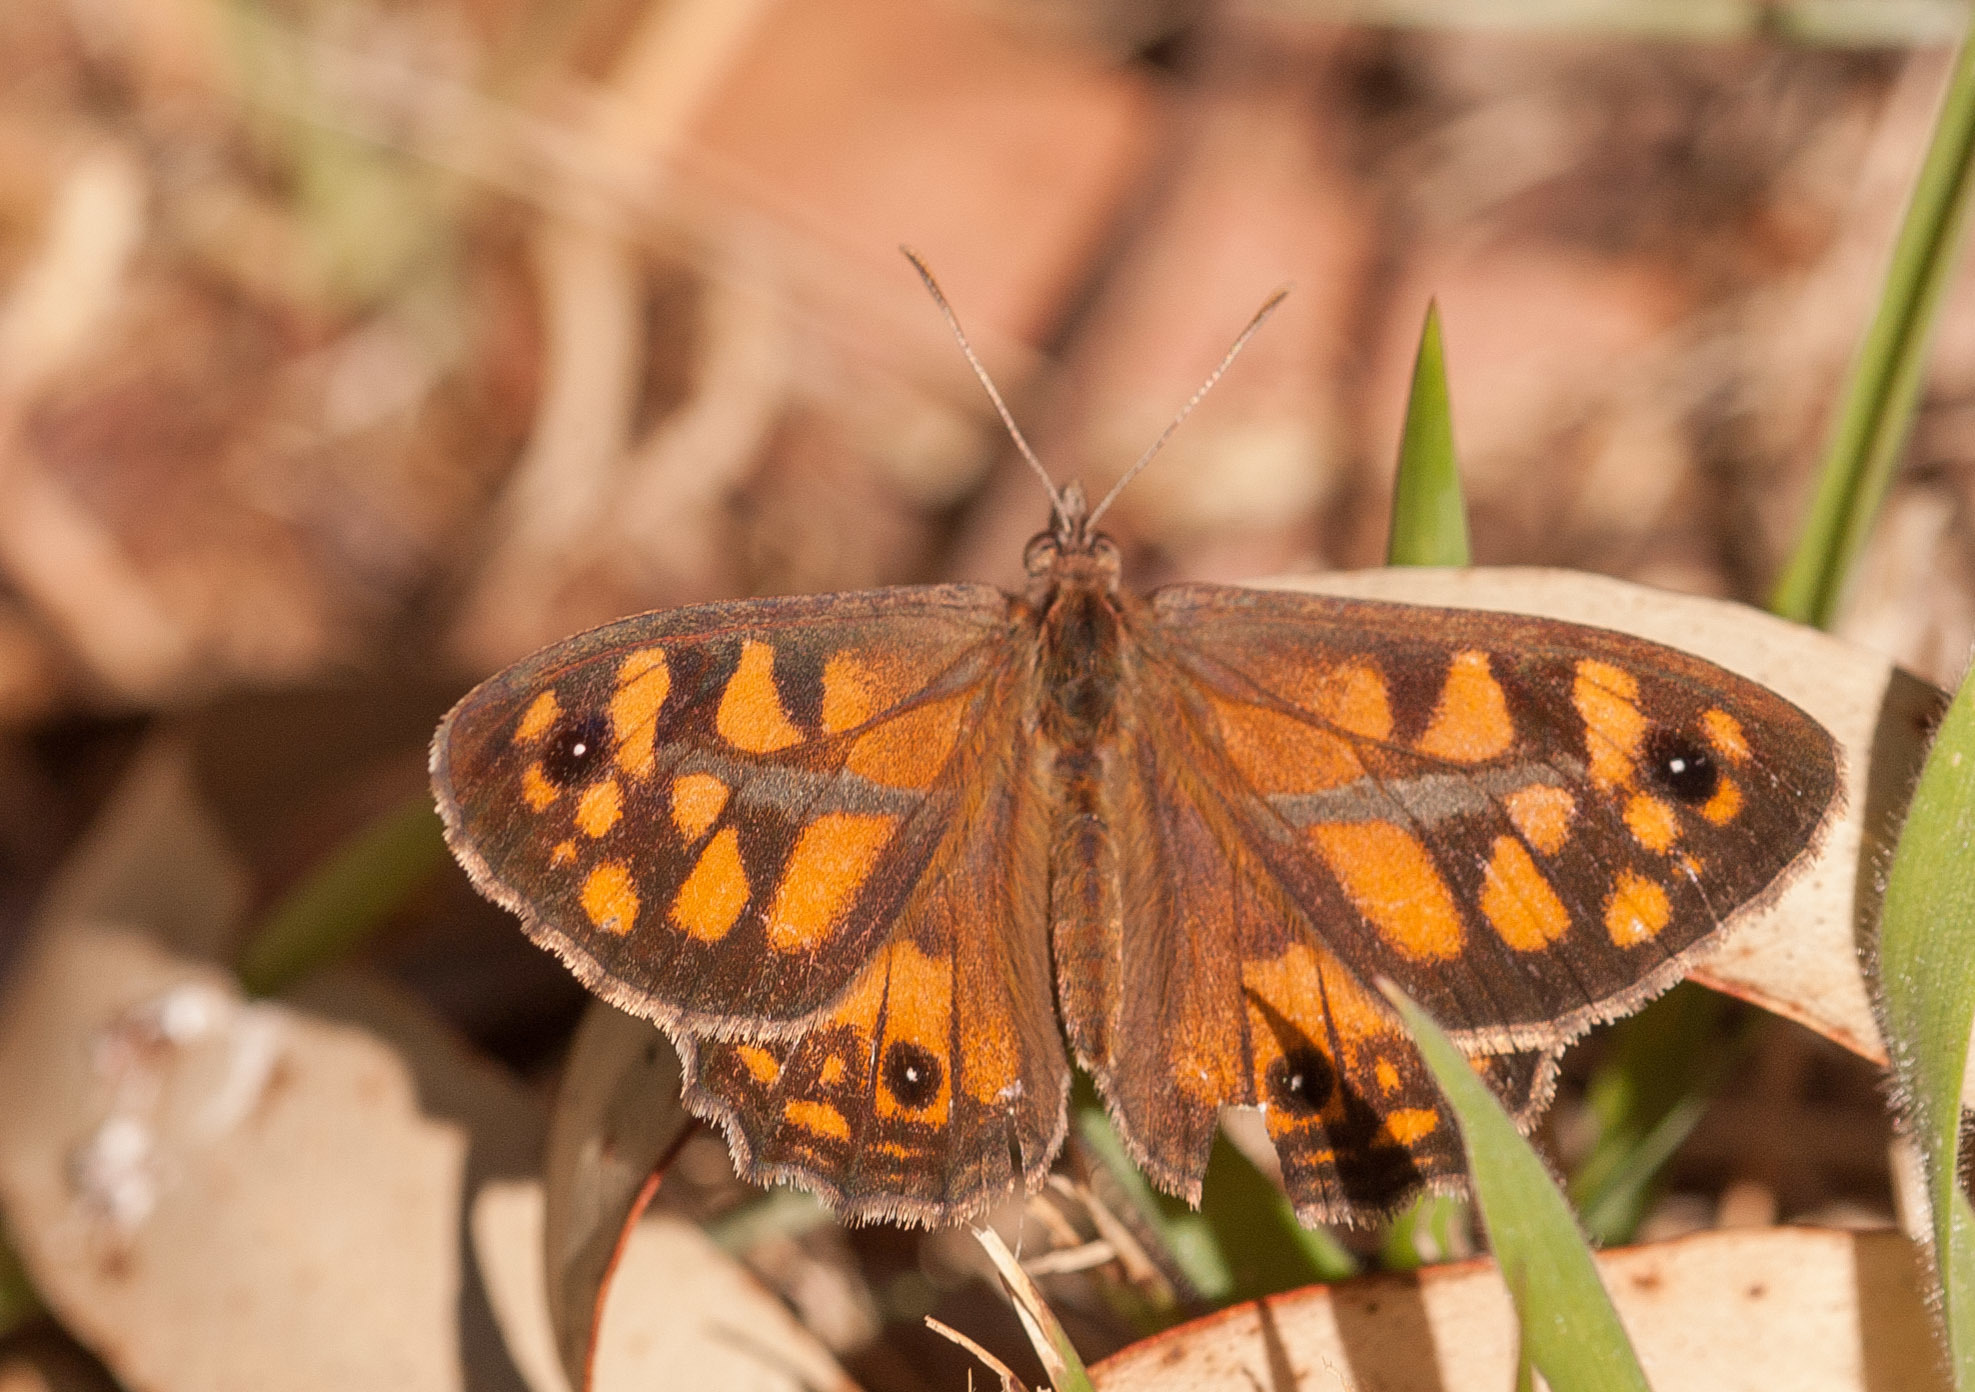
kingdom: Animalia
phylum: Arthropoda
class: Insecta
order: Lepidoptera
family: Nymphalidae
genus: Geitoneura
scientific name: Geitoneura klugii
